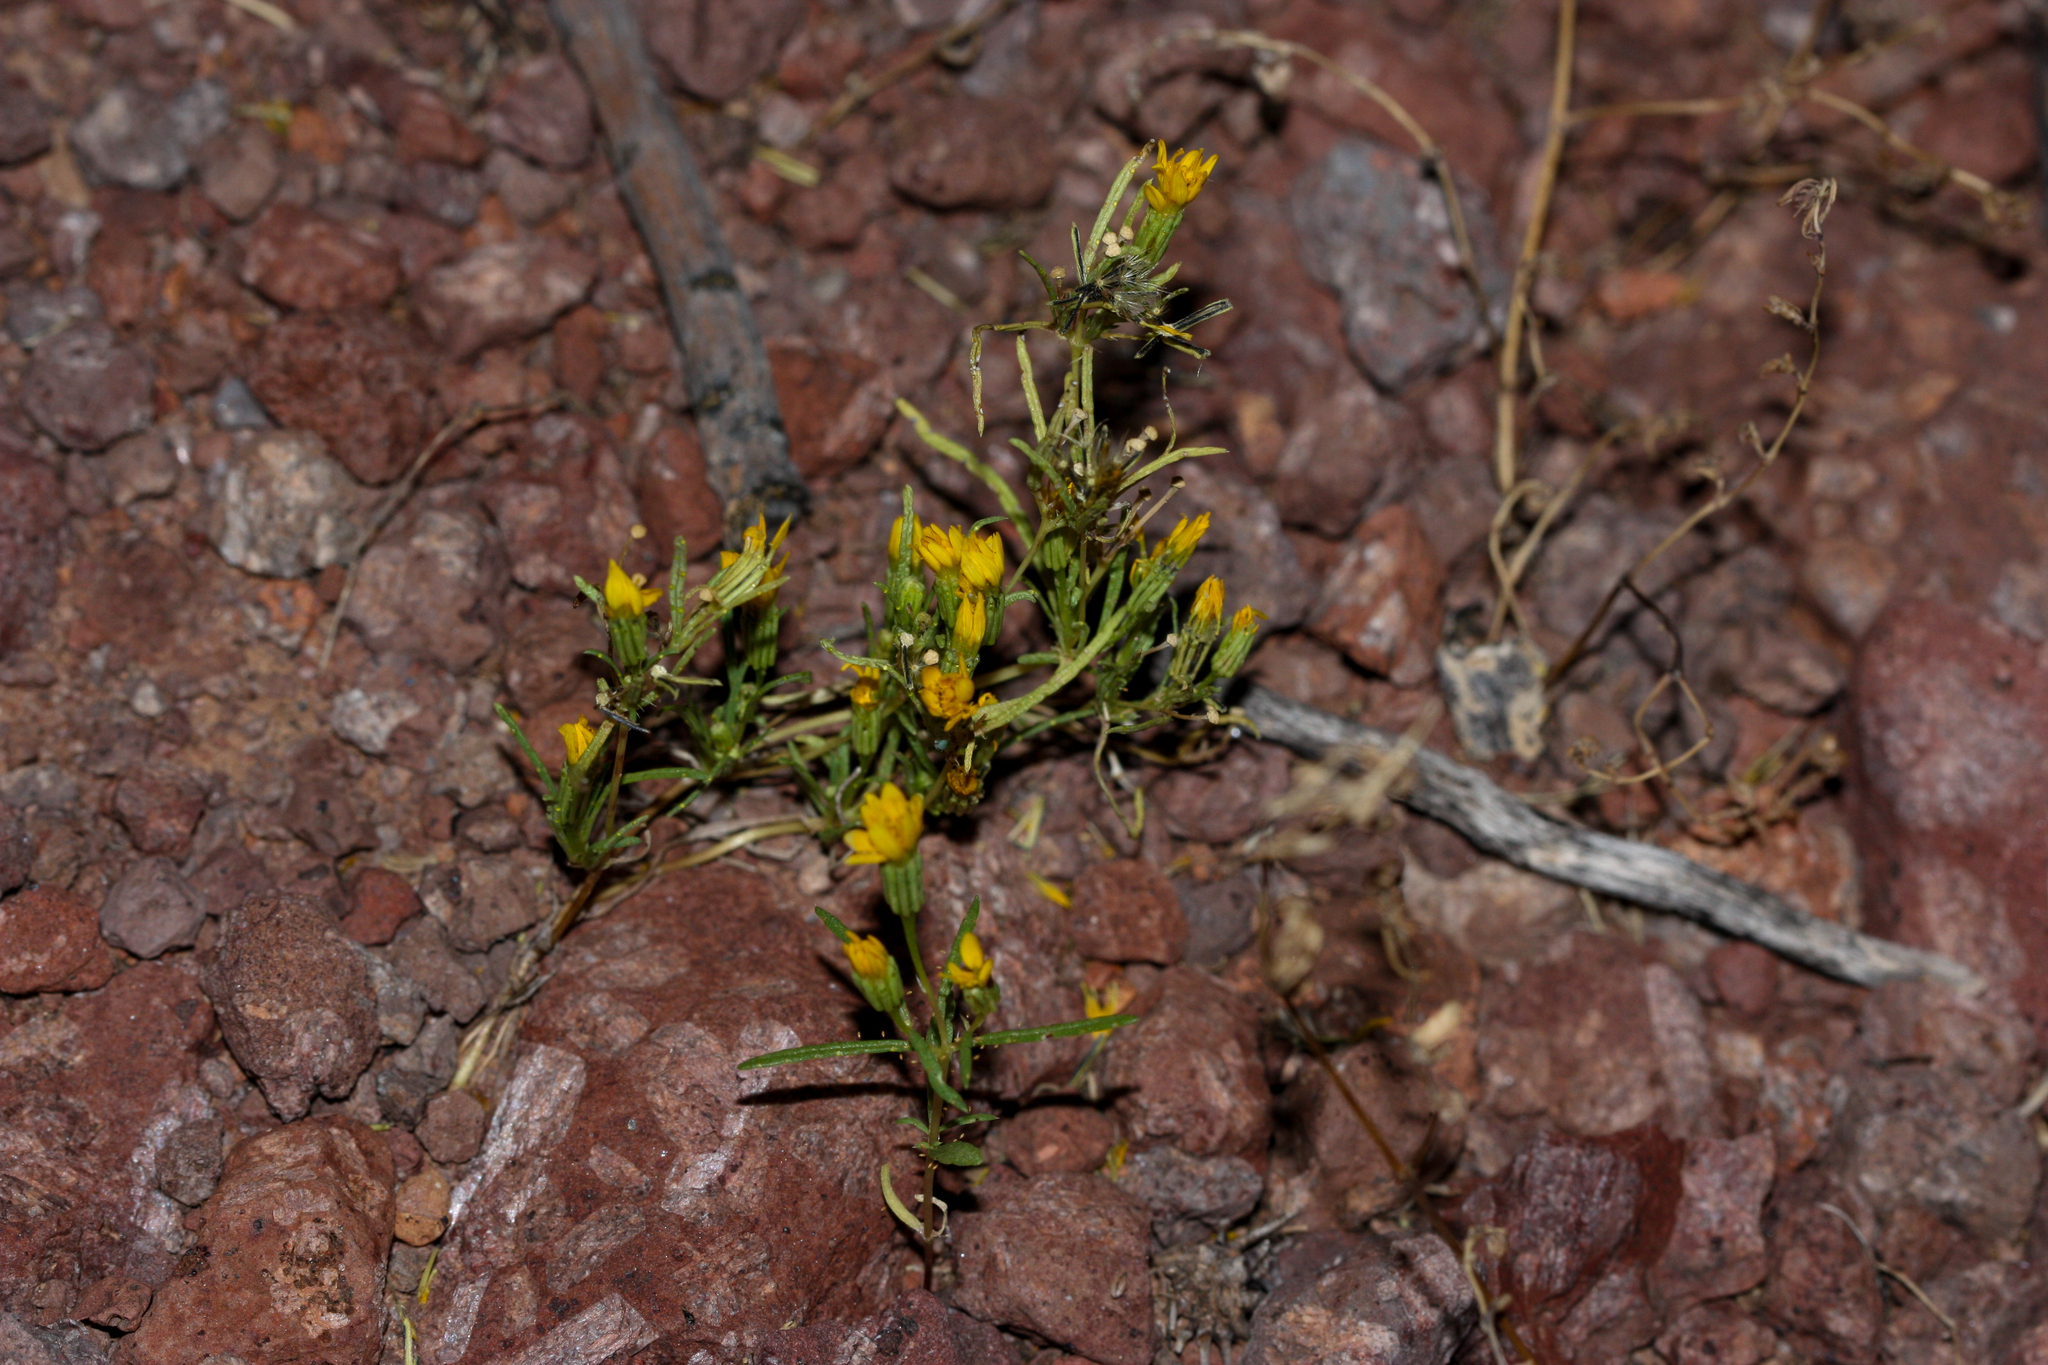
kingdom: Plantae
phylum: Tracheophyta
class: Magnoliopsida
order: Asterales
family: Asteraceae
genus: Pectis
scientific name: Pectis papposa
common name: Many-bristle chinchweed
